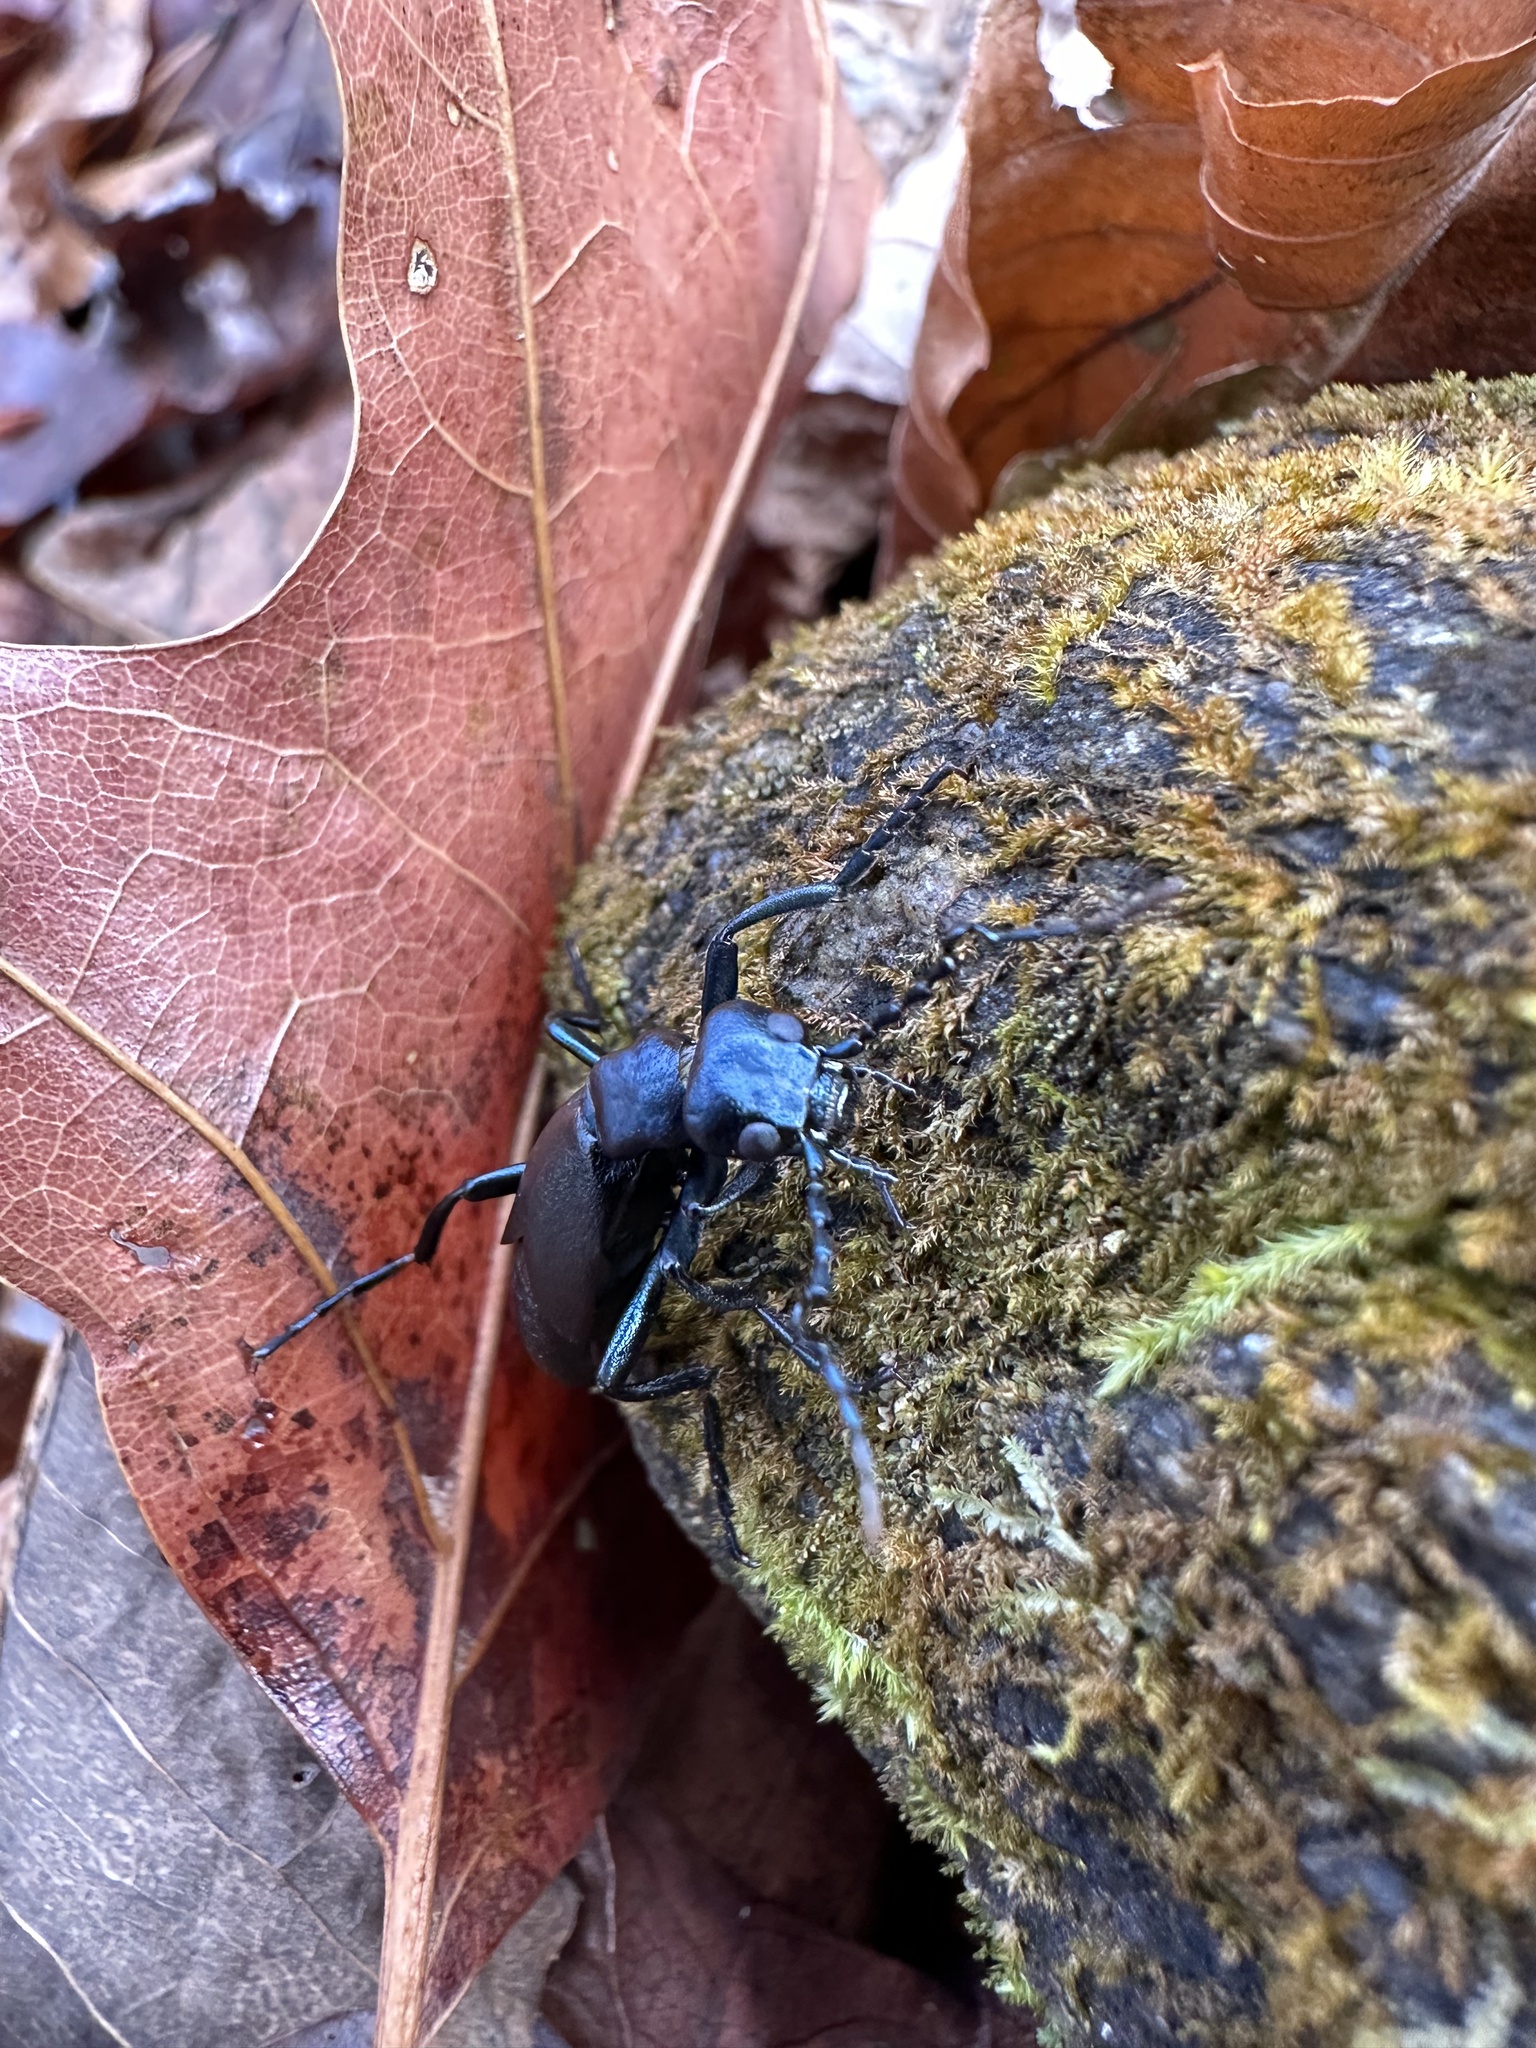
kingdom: Animalia
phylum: Arthropoda
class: Insecta
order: Coleoptera
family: Meloidae
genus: Meloe
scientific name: Meloe americanus
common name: Buttercup oil beetle
